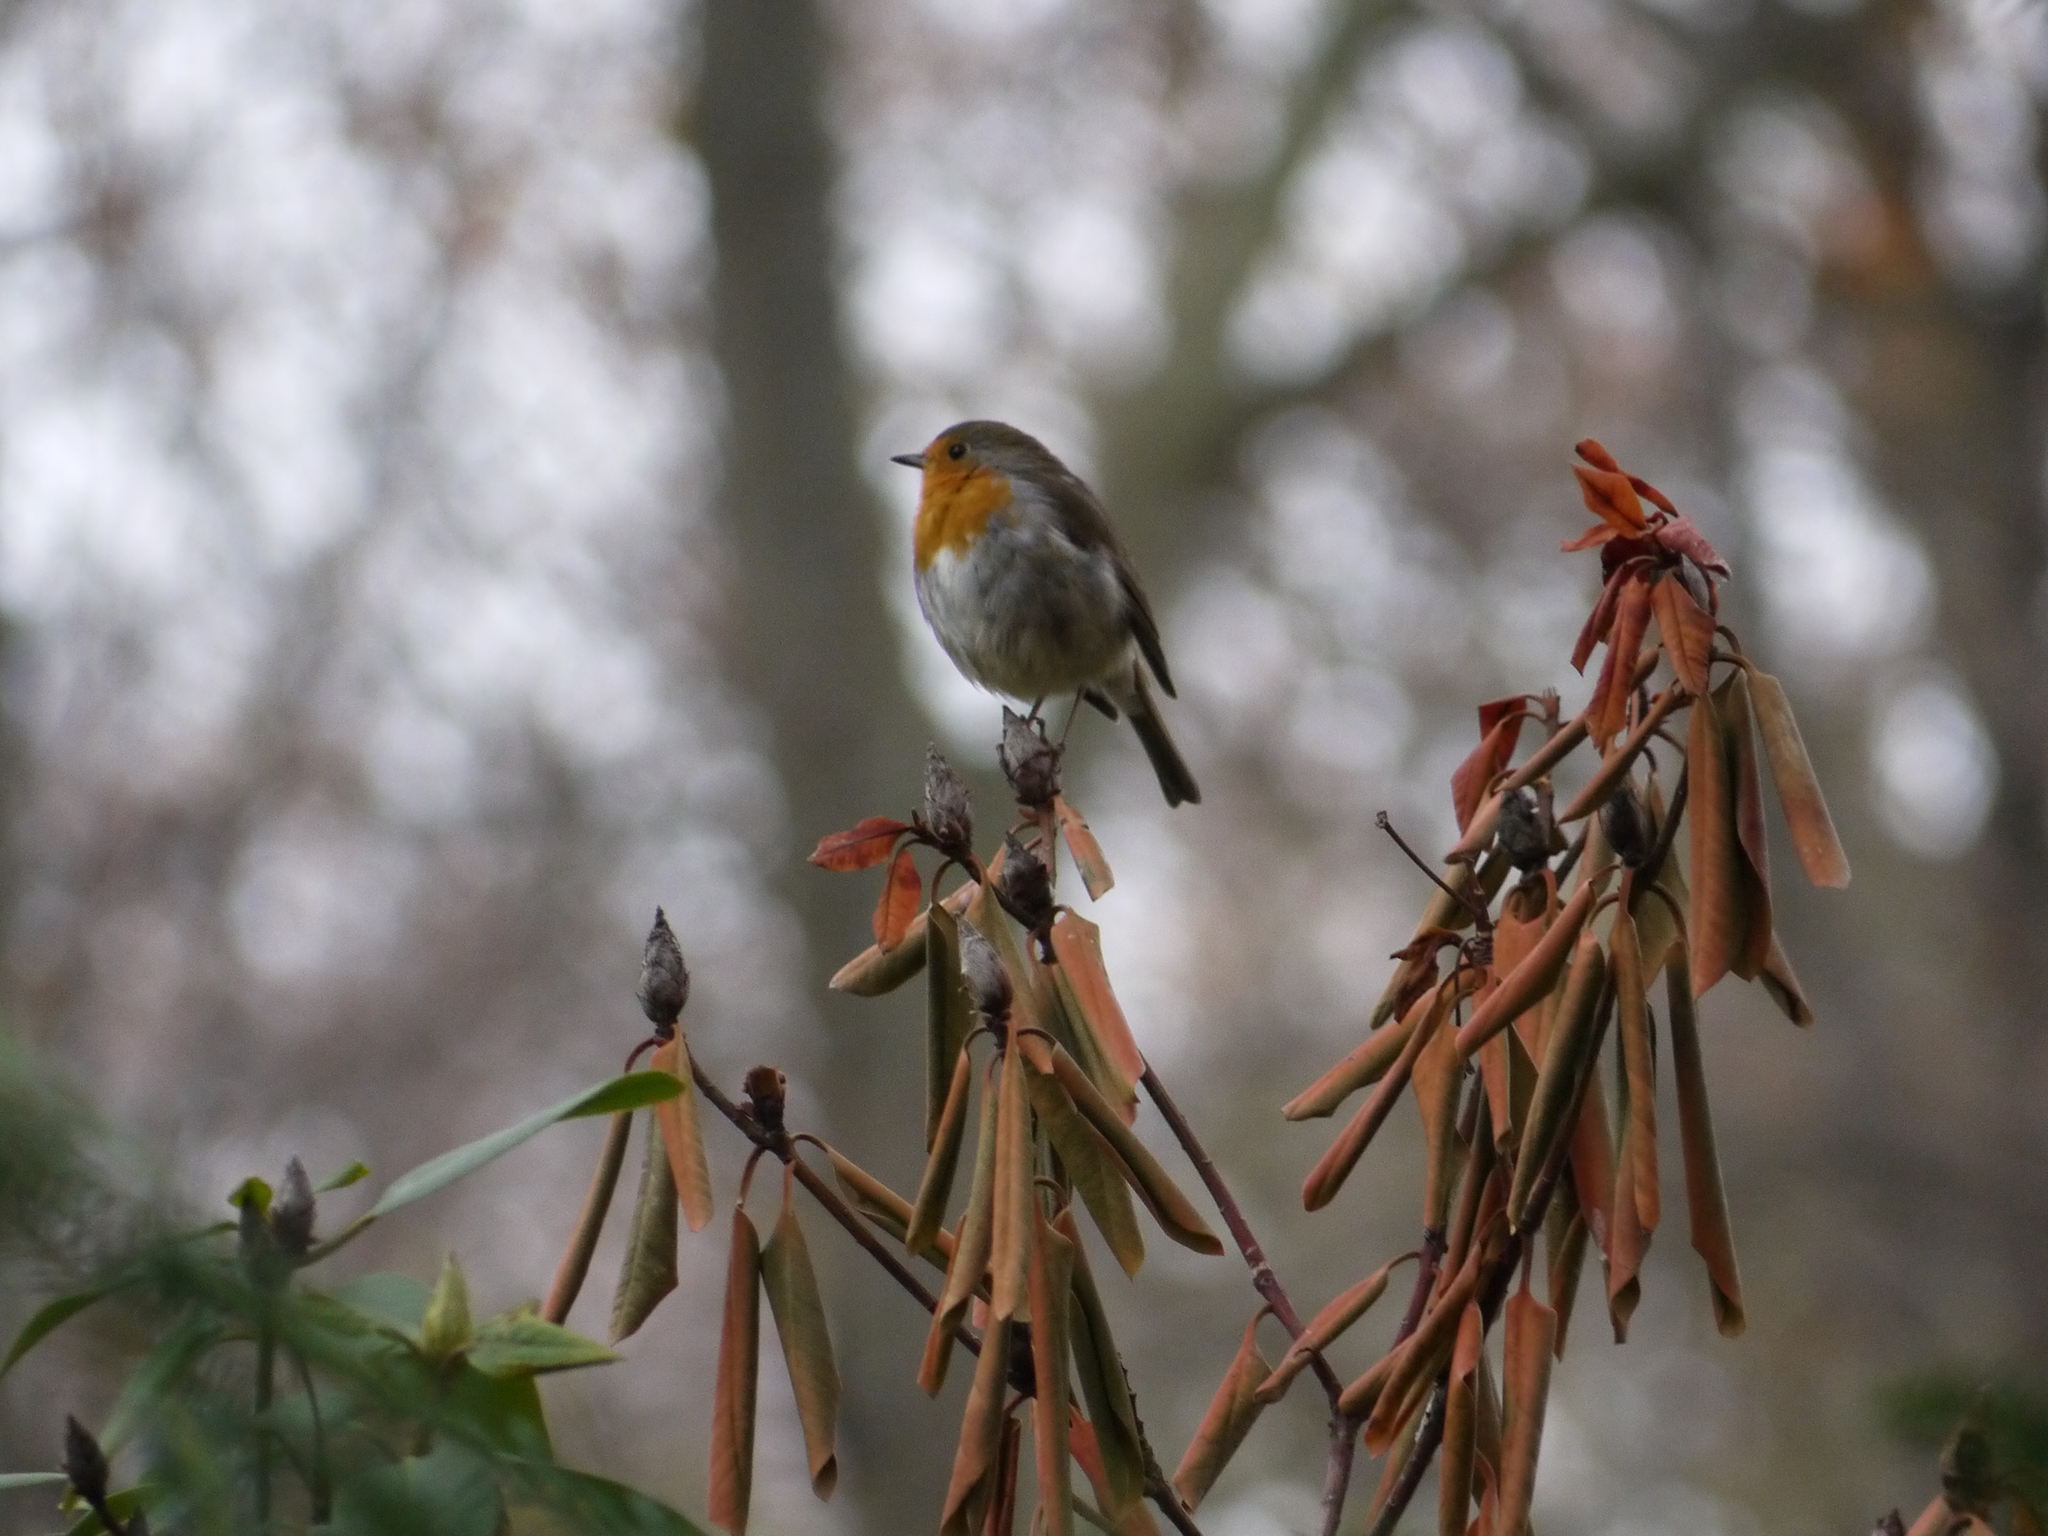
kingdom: Animalia
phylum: Chordata
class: Aves
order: Passeriformes
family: Muscicapidae
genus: Erithacus
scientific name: Erithacus rubecula
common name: European robin
